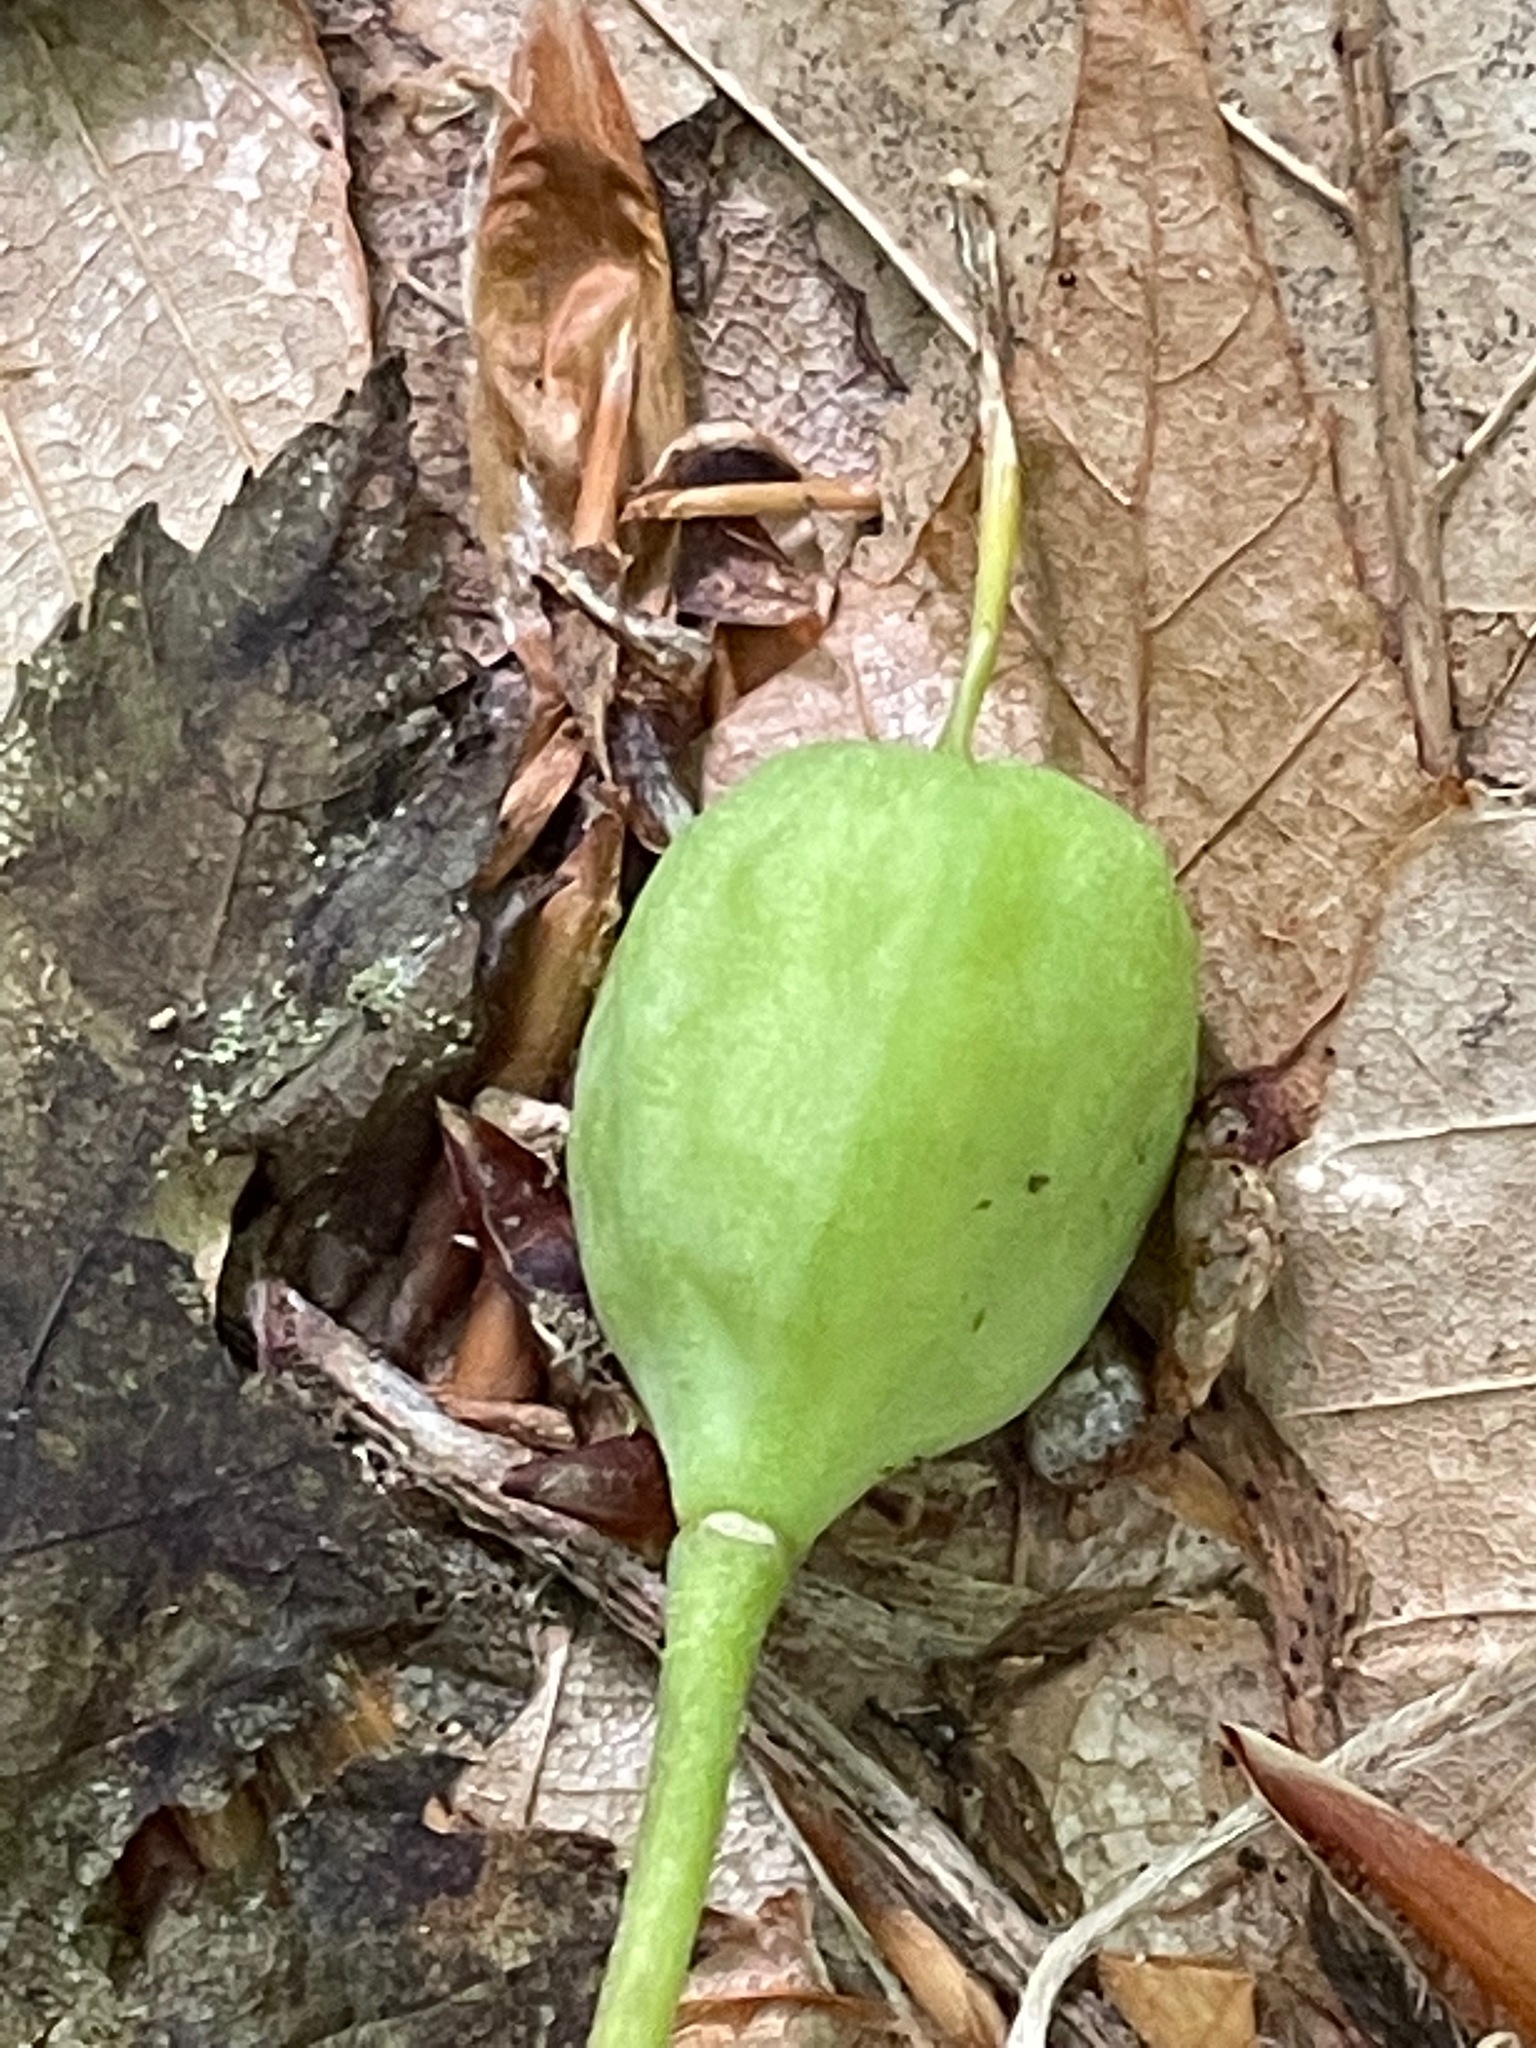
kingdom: Plantae
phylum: Tracheophyta
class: Liliopsida
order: Liliales
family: Liliaceae
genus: Erythronium
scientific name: Erythronium americanum
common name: Yellow adder's-tongue
